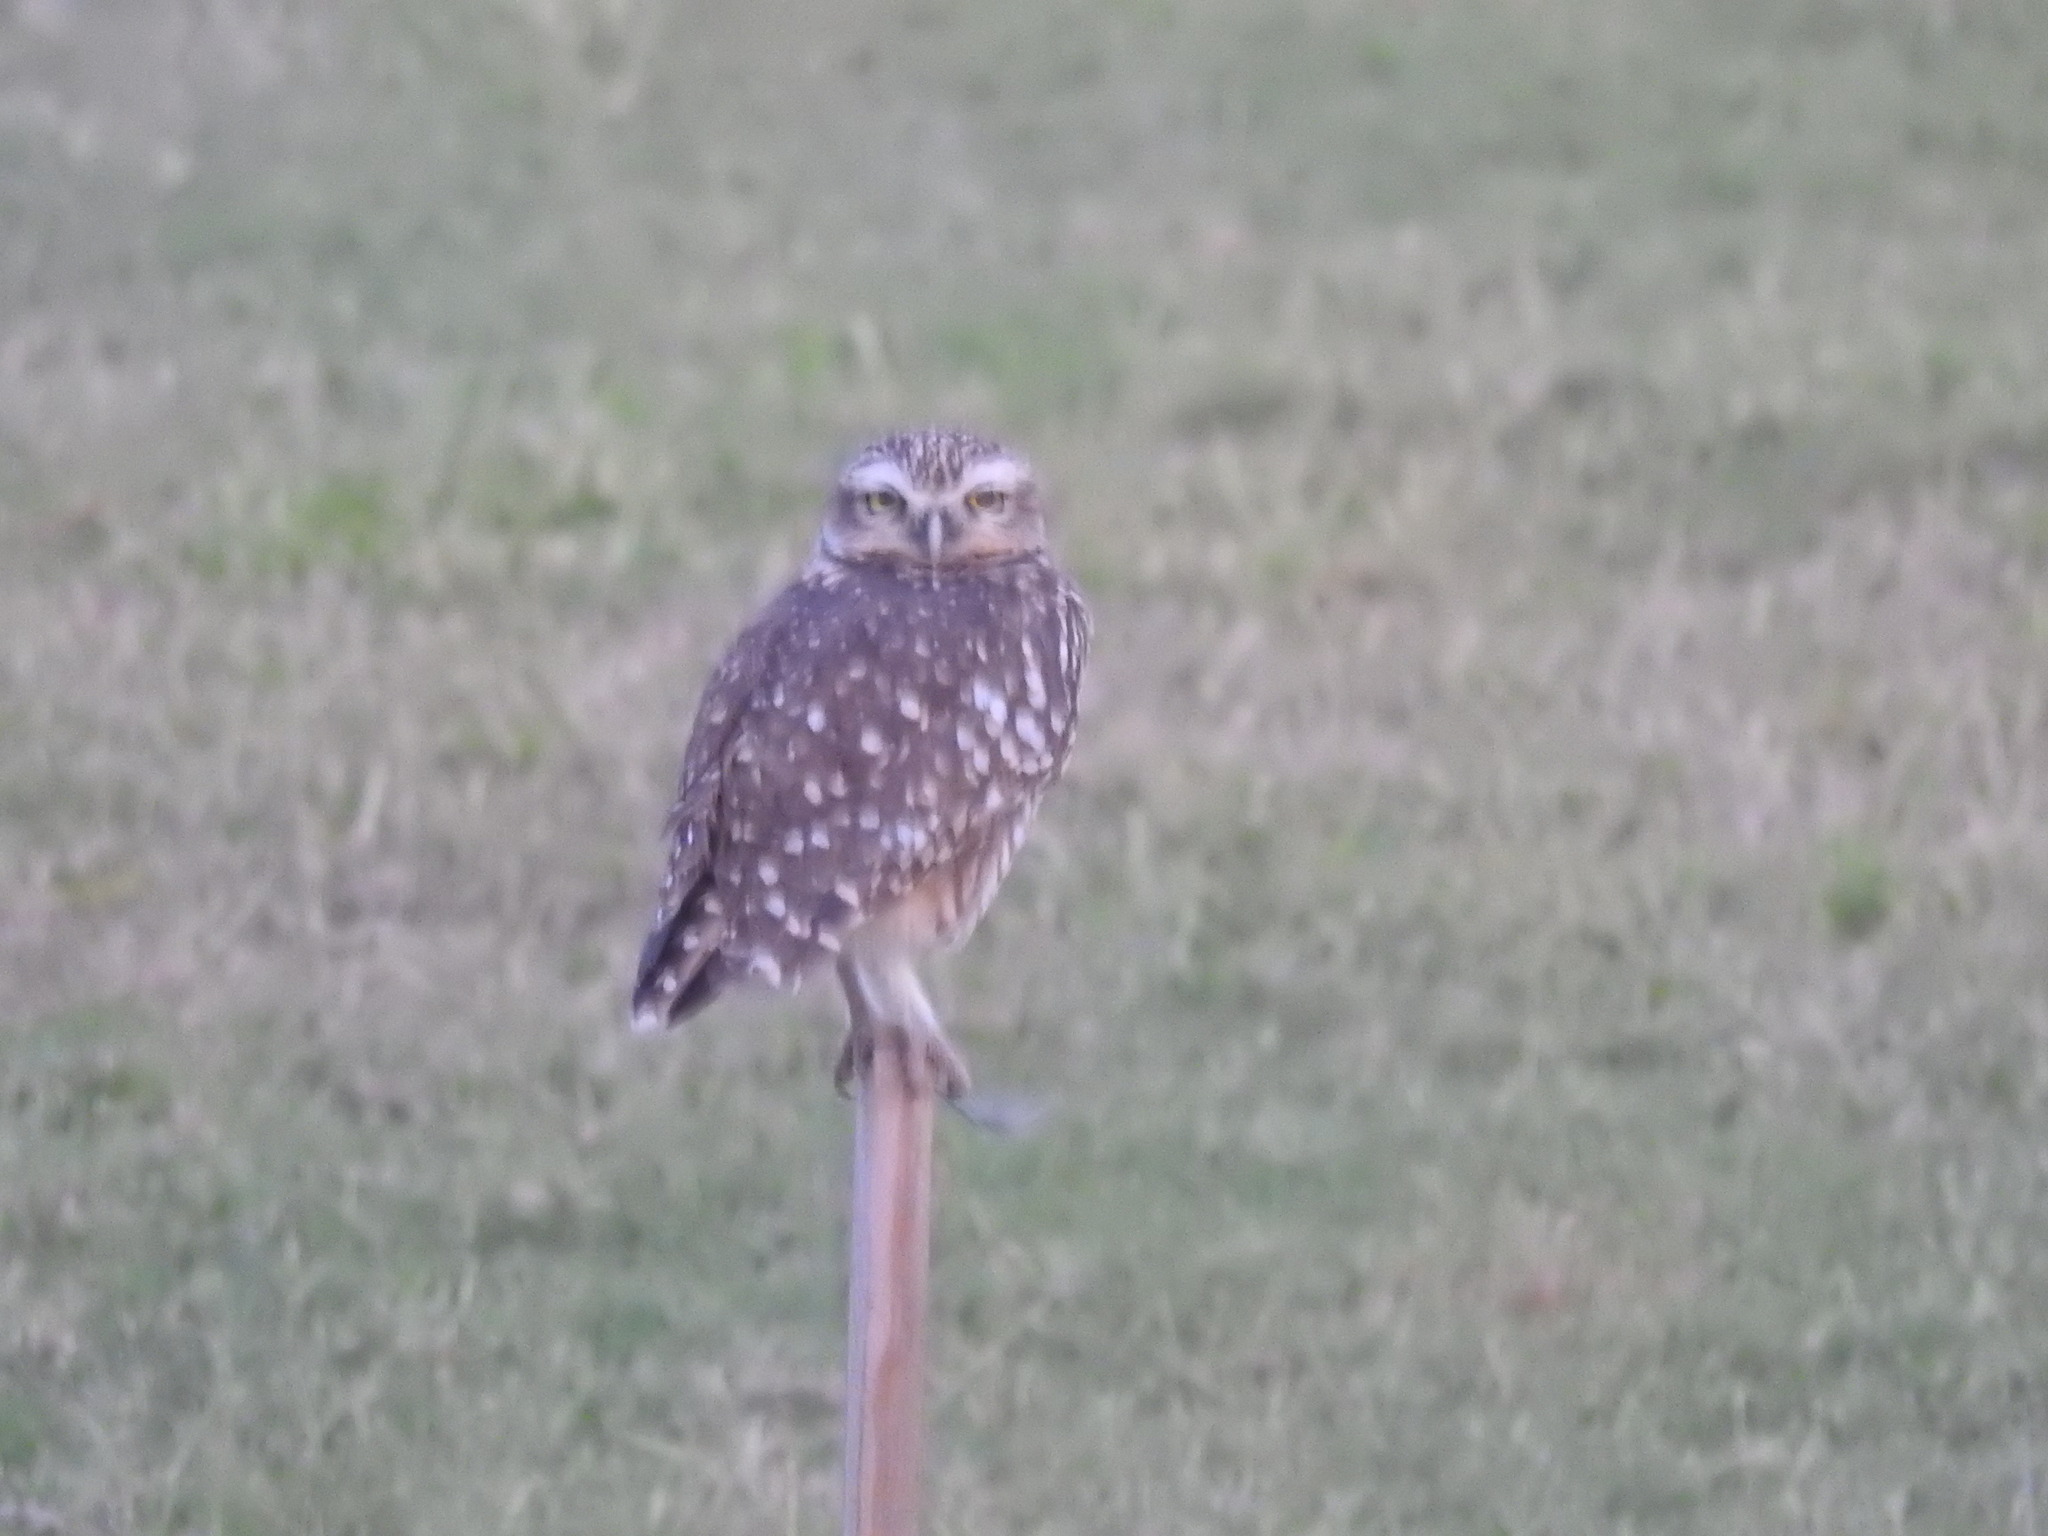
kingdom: Animalia
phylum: Chordata
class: Aves
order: Strigiformes
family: Strigidae
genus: Athene
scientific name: Athene cunicularia
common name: Burrowing owl
